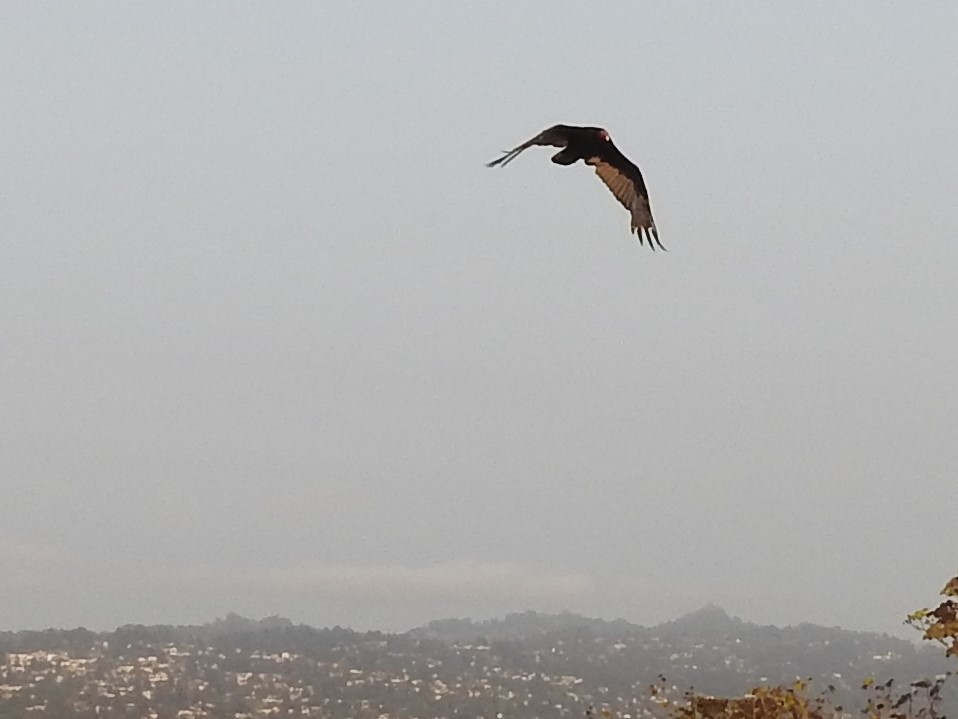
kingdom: Animalia
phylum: Chordata
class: Aves
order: Accipitriformes
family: Cathartidae
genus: Cathartes
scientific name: Cathartes aura
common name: Turkey vulture
